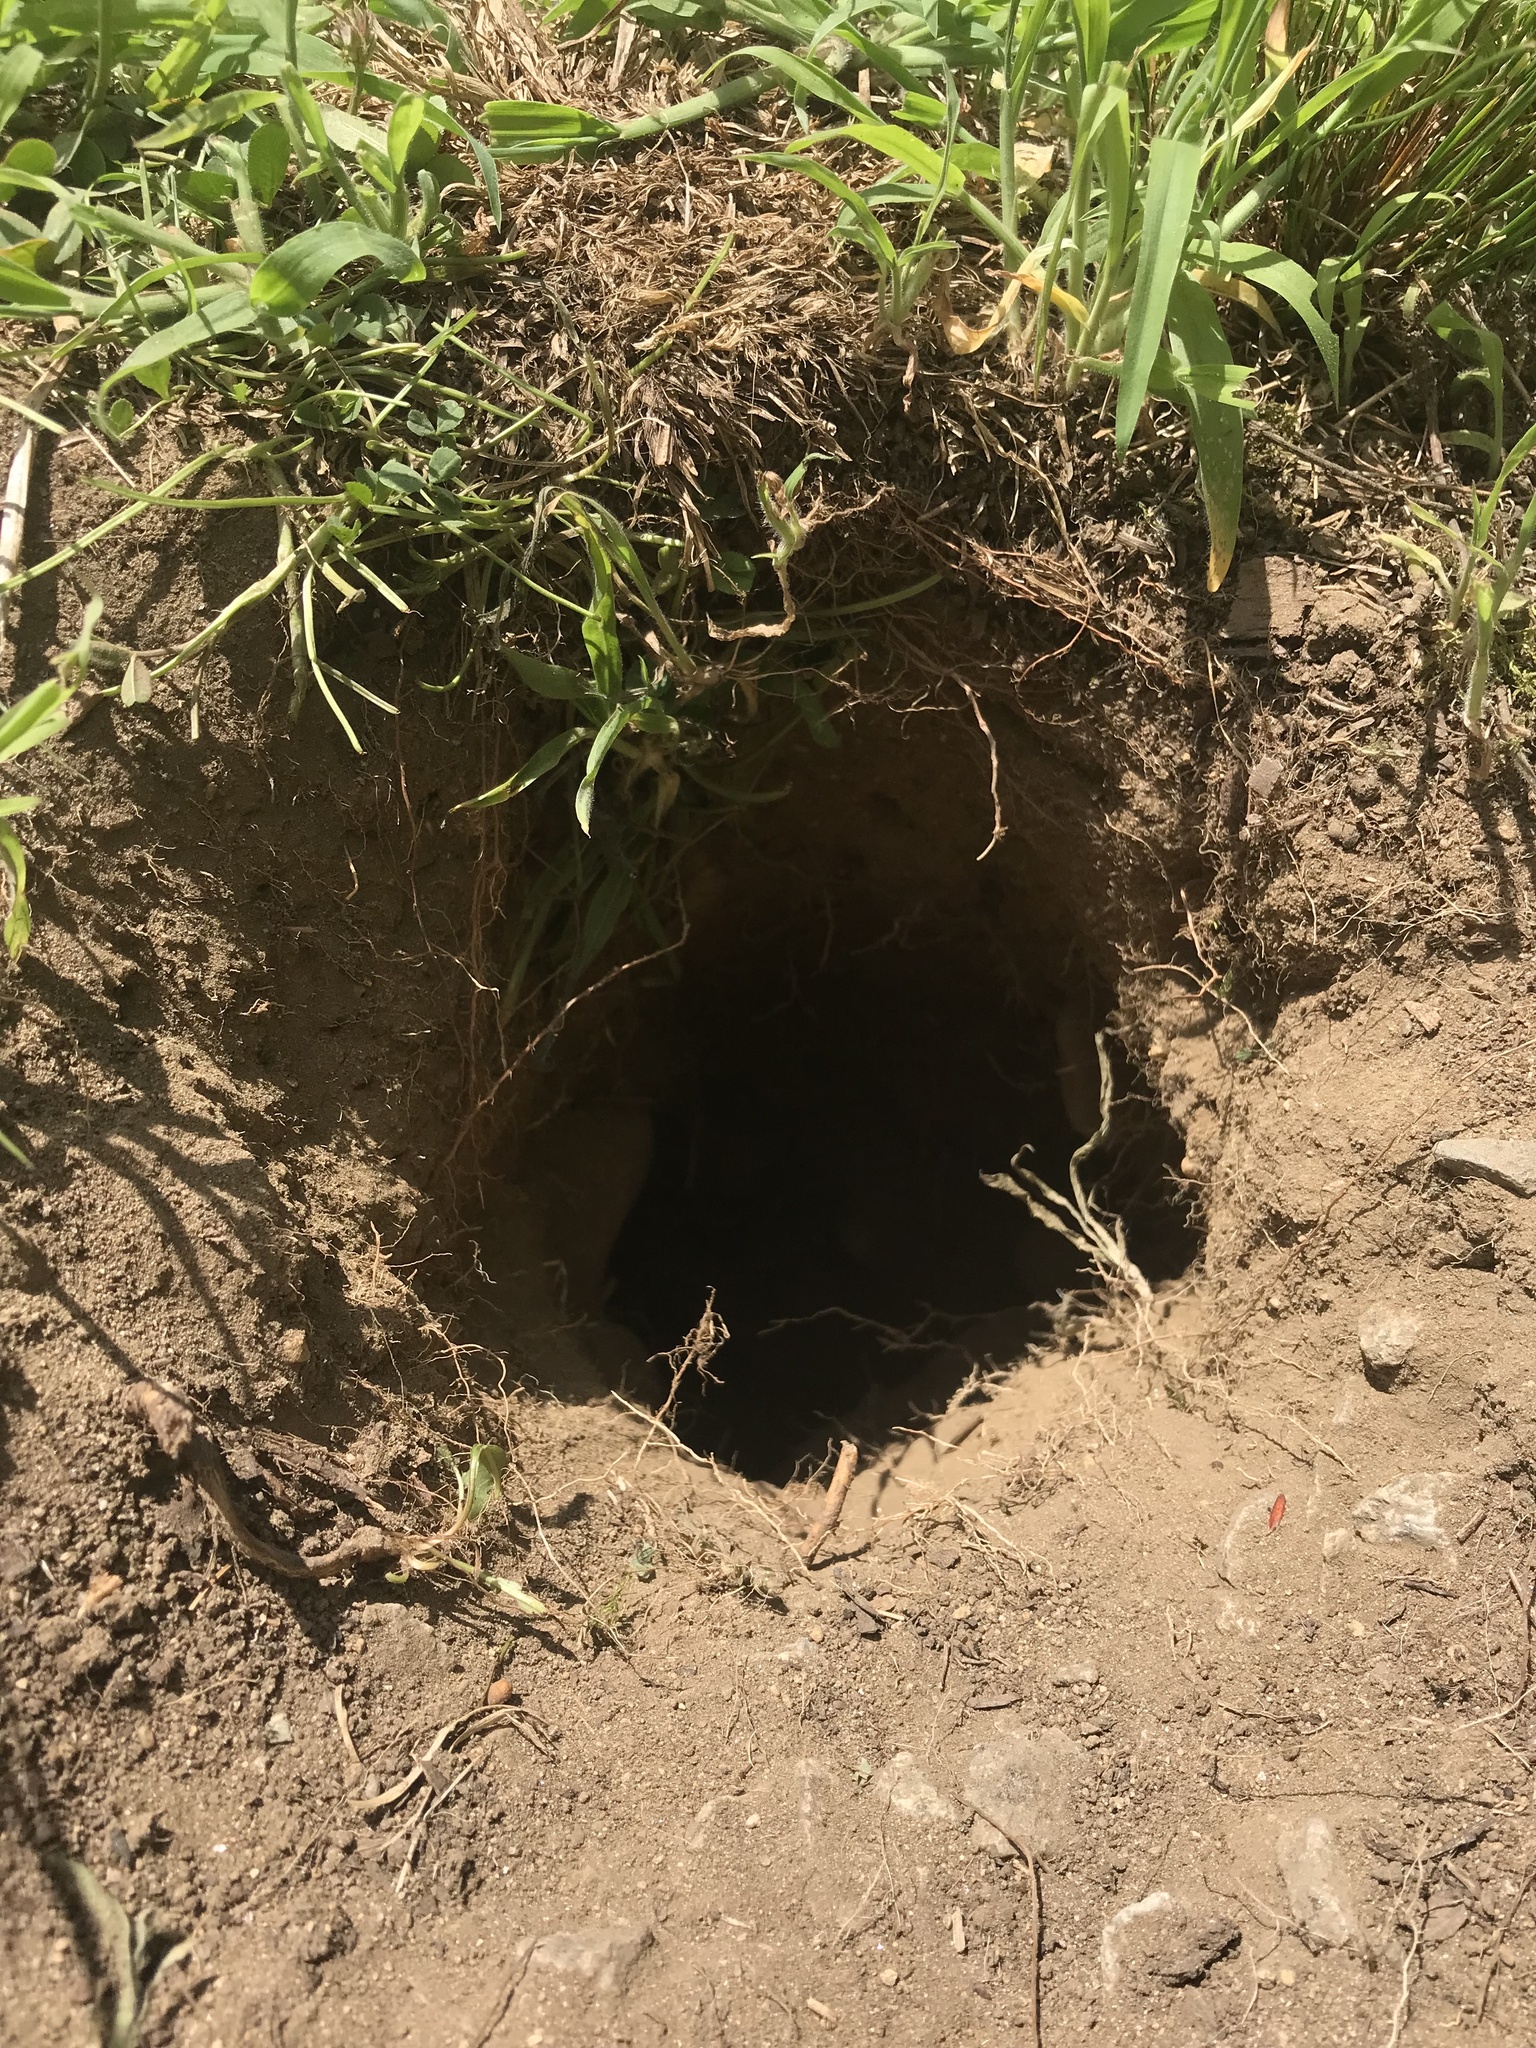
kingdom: Animalia
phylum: Chordata
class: Mammalia
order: Rodentia
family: Sciuridae
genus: Marmota
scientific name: Marmota monax
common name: Groundhog
